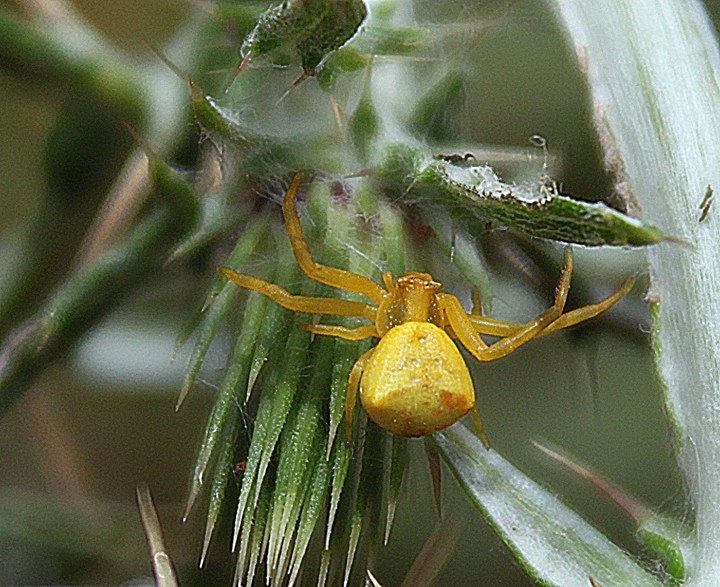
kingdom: Animalia
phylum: Arthropoda
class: Arachnida
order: Araneae
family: Thomisidae
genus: Thomisus
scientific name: Thomisus onustus
